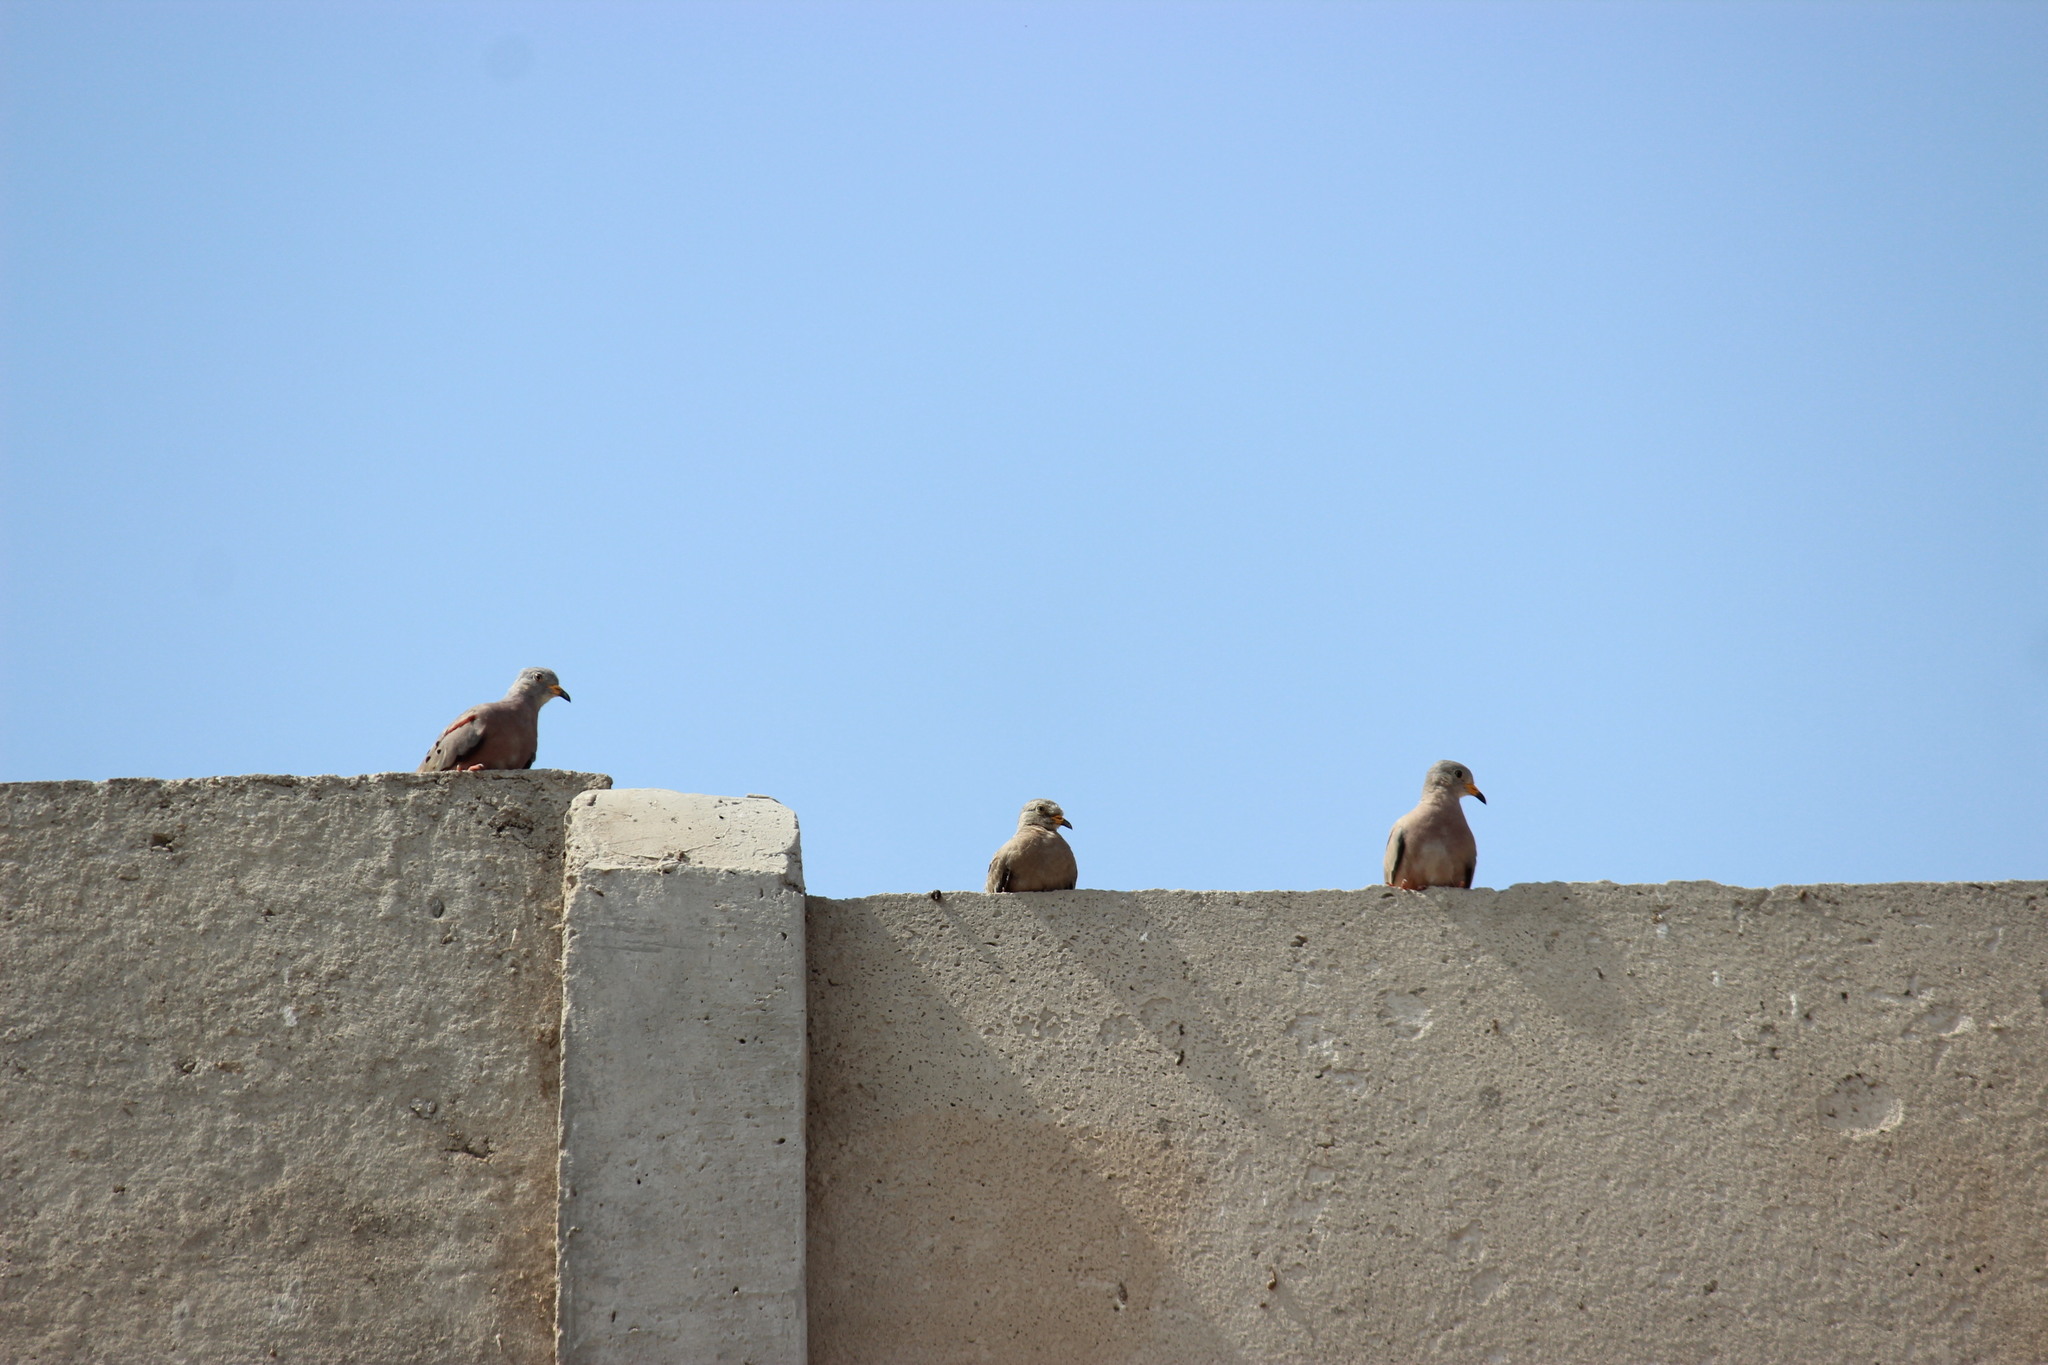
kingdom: Animalia
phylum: Chordata
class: Aves
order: Columbiformes
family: Columbidae
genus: Columbina
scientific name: Columbina cruziana
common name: Croaking ground dove
